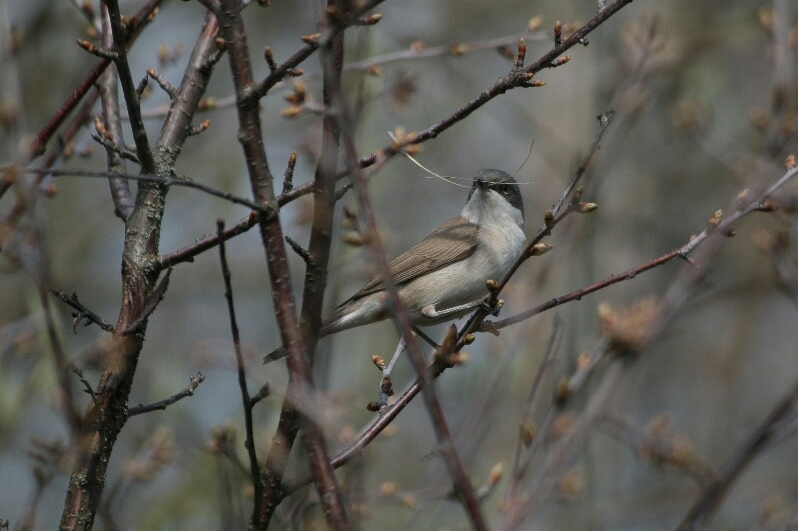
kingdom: Animalia
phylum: Chordata
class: Aves
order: Passeriformes
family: Sylviidae
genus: Sylvia
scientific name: Sylvia curruca
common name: Lesser whitethroat
